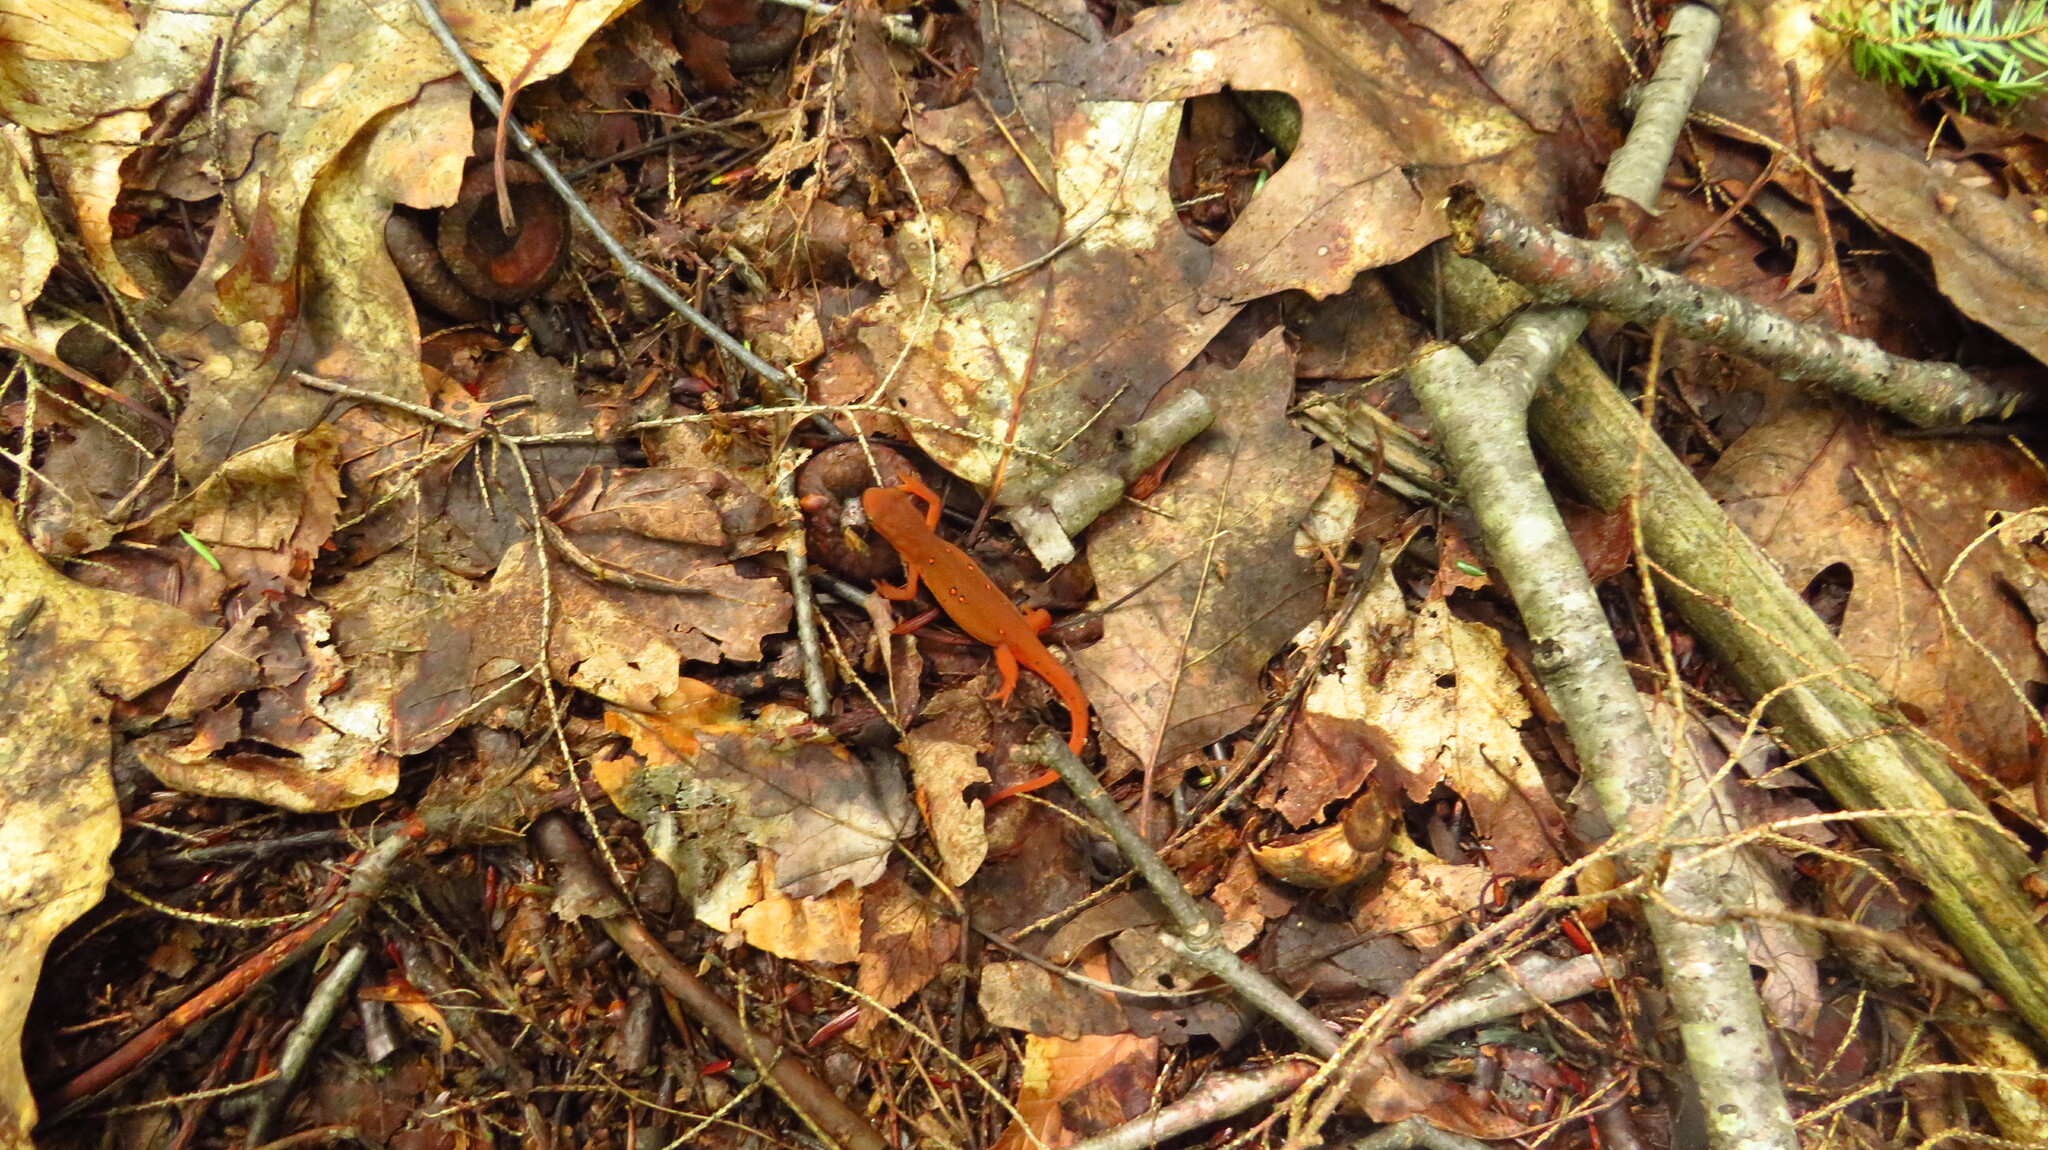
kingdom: Animalia
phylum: Chordata
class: Amphibia
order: Caudata
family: Salamandridae
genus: Notophthalmus
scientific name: Notophthalmus viridescens
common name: Eastern newt
